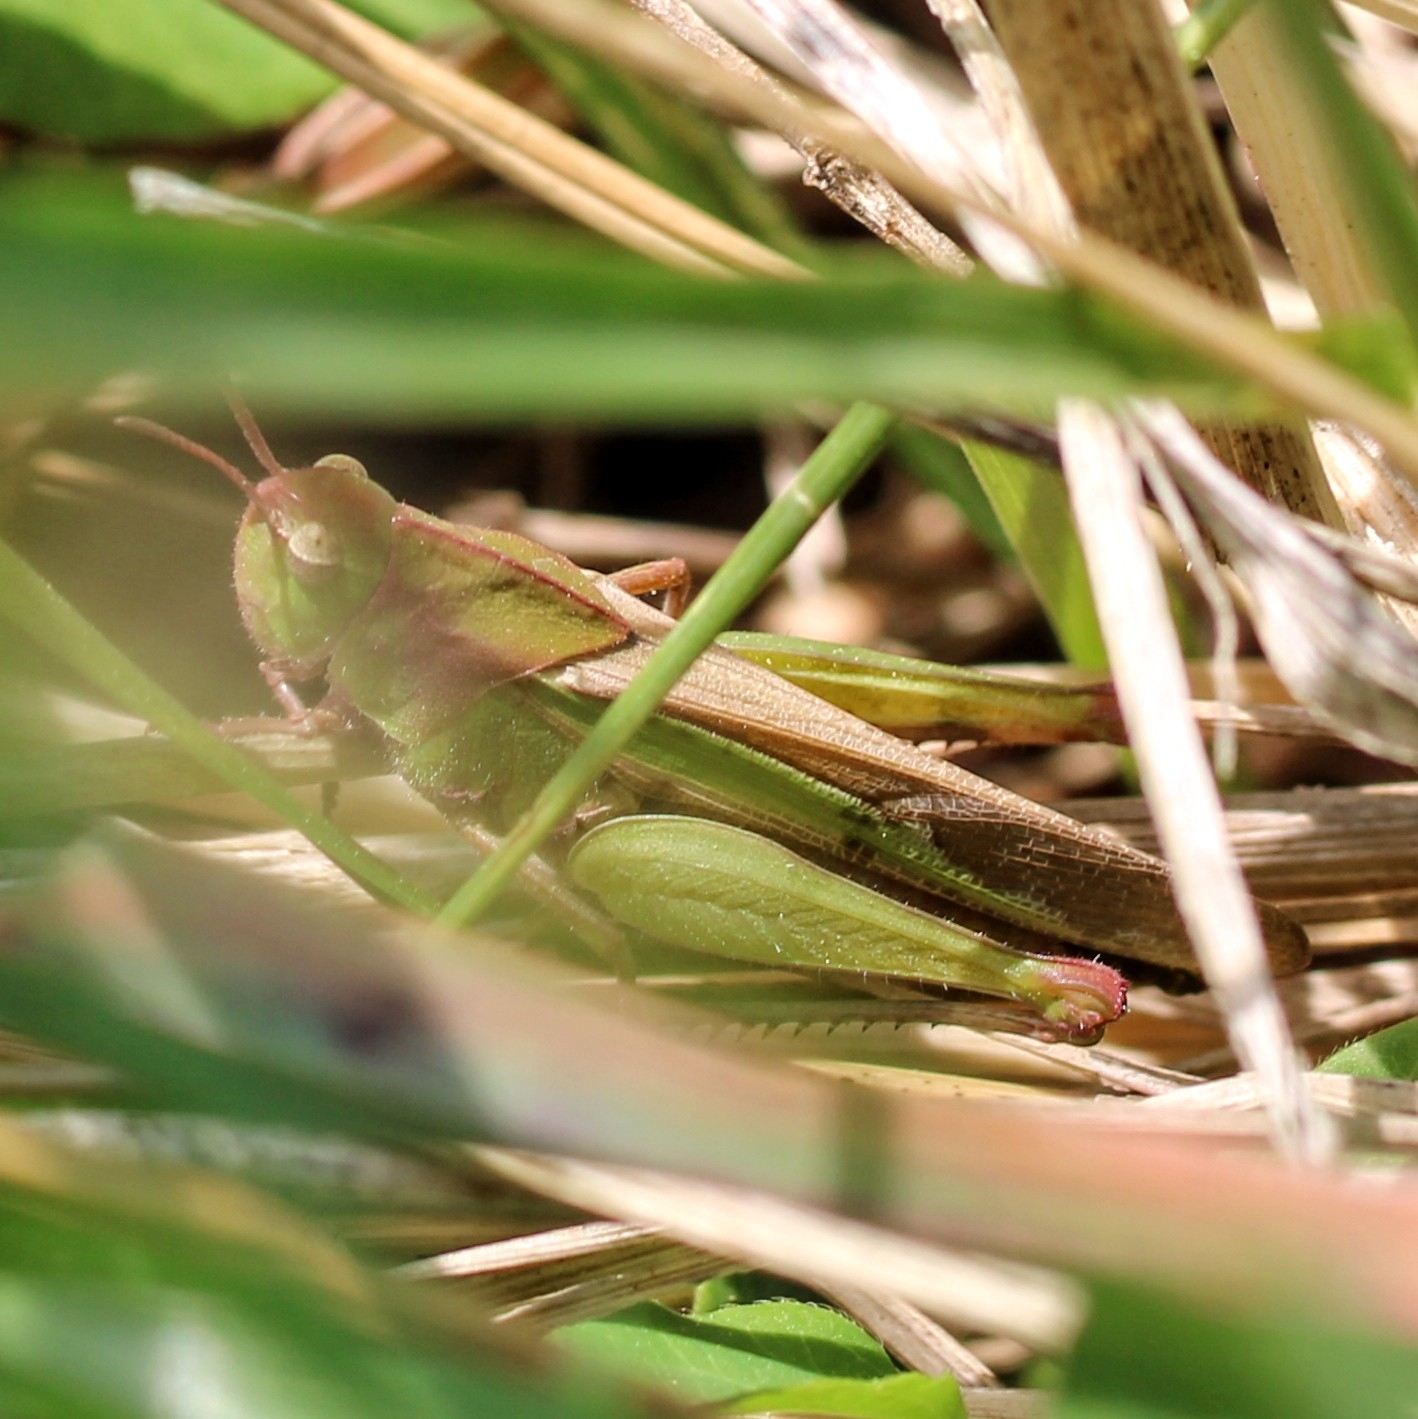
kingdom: Animalia
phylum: Arthropoda
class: Insecta
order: Orthoptera
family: Acrididae
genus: Chortophaga
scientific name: Chortophaga viridifasciata
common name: Green-striped grasshopper
